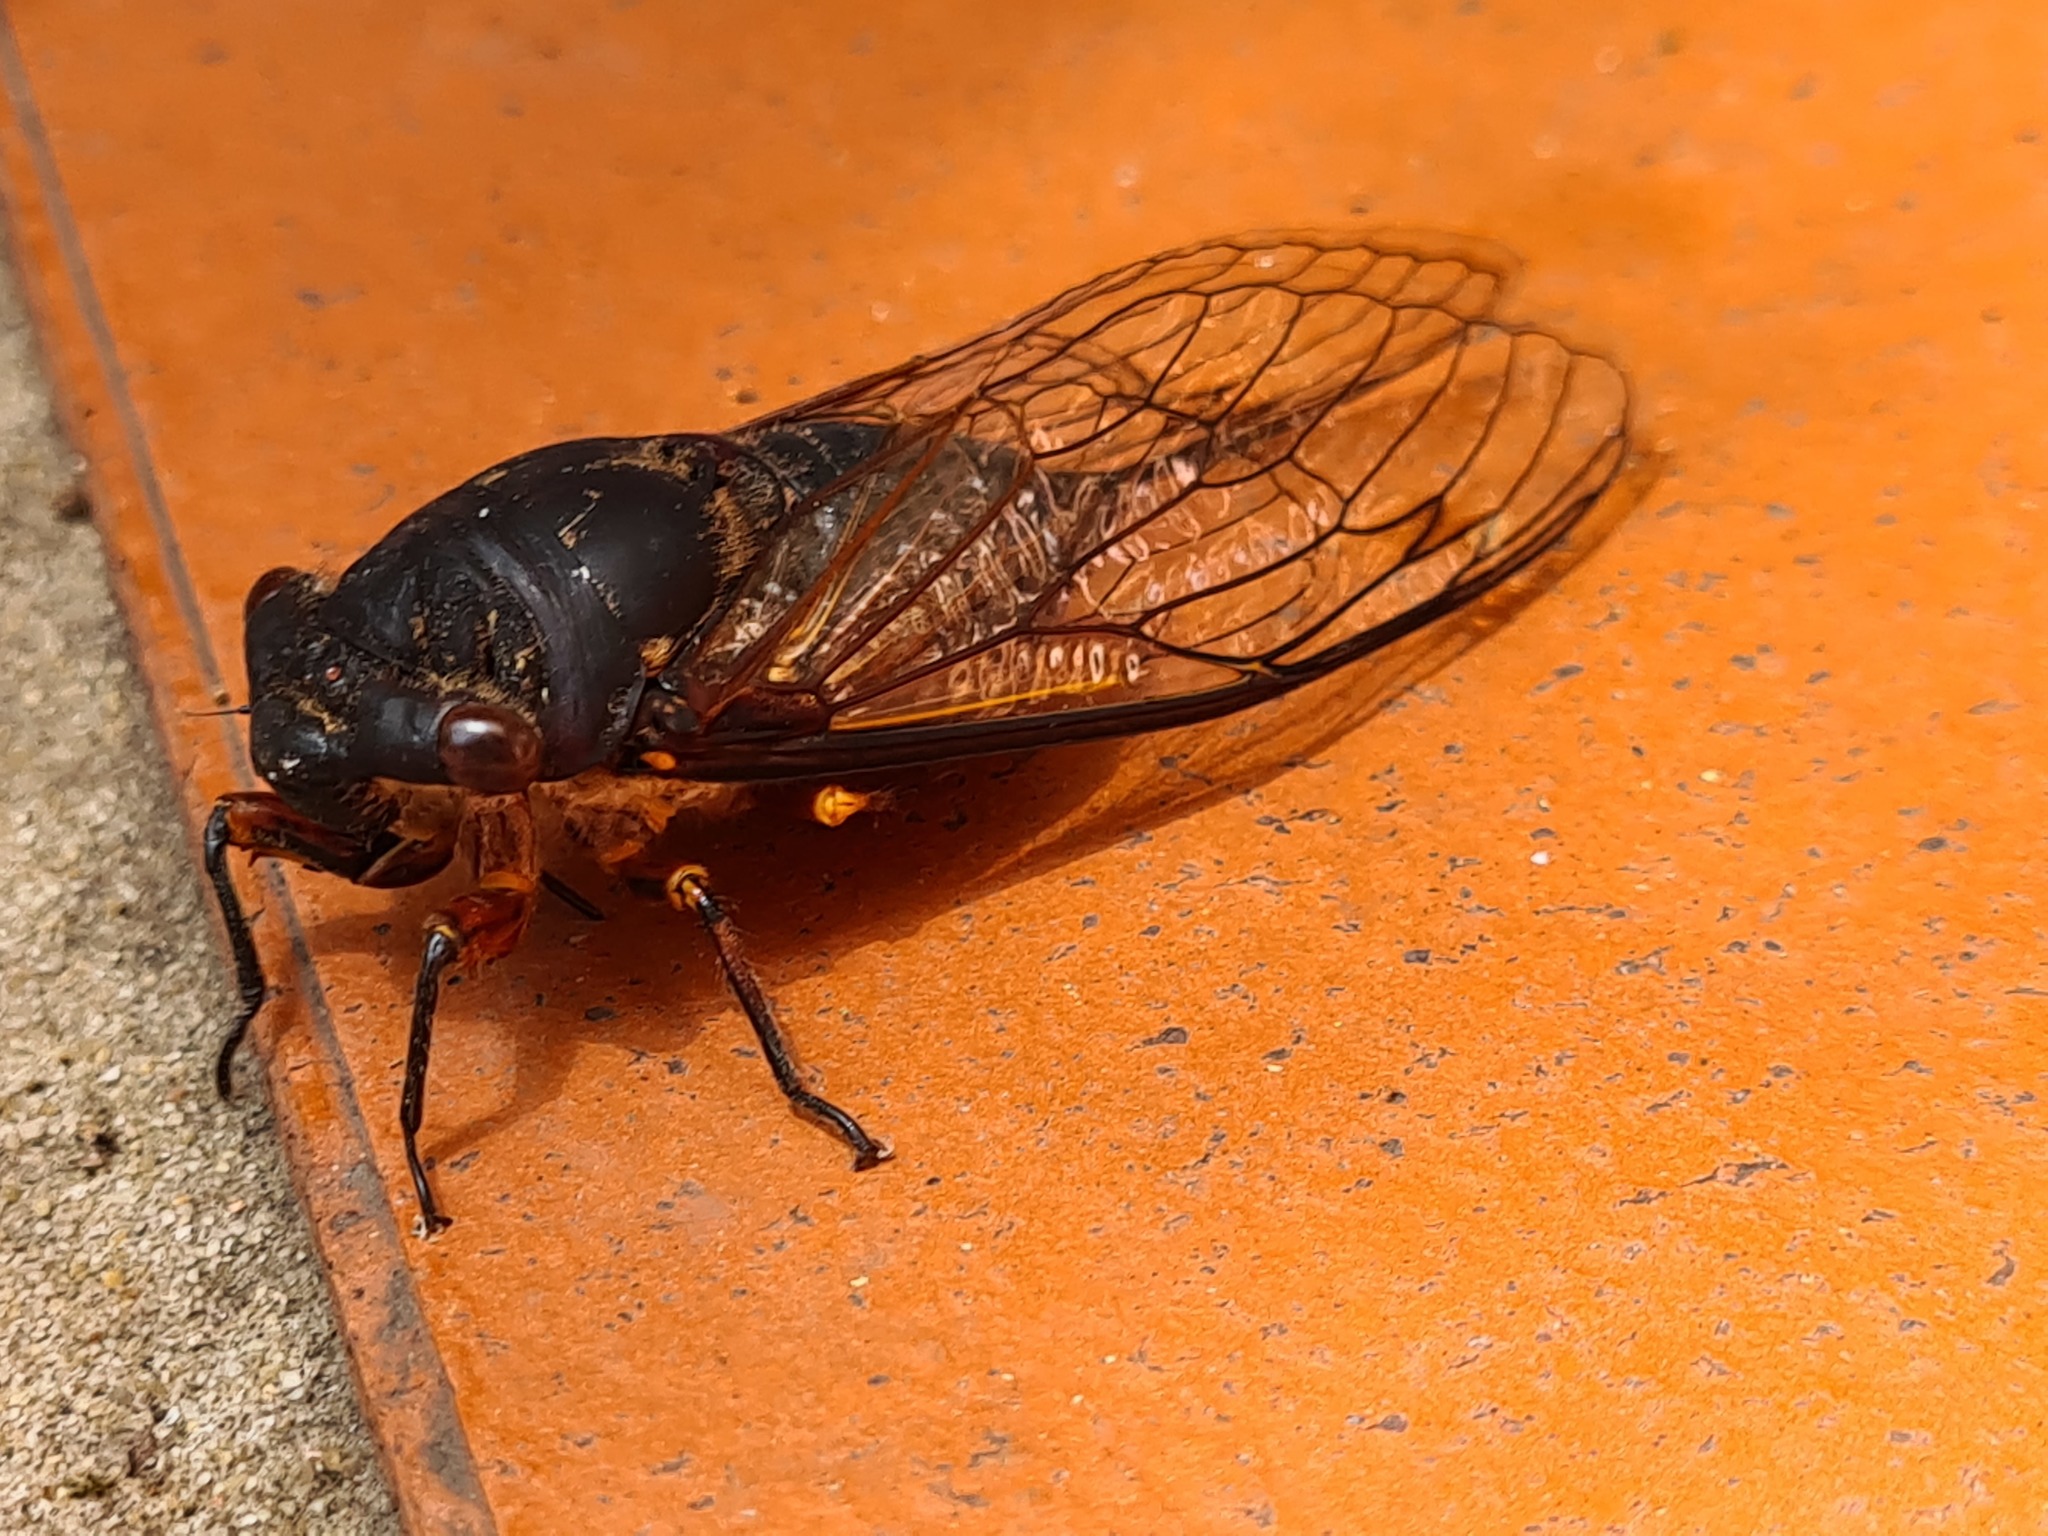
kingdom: Animalia
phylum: Arthropoda
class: Insecta
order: Hemiptera
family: Cicadidae
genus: Psaltoda
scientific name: Psaltoda plaga
